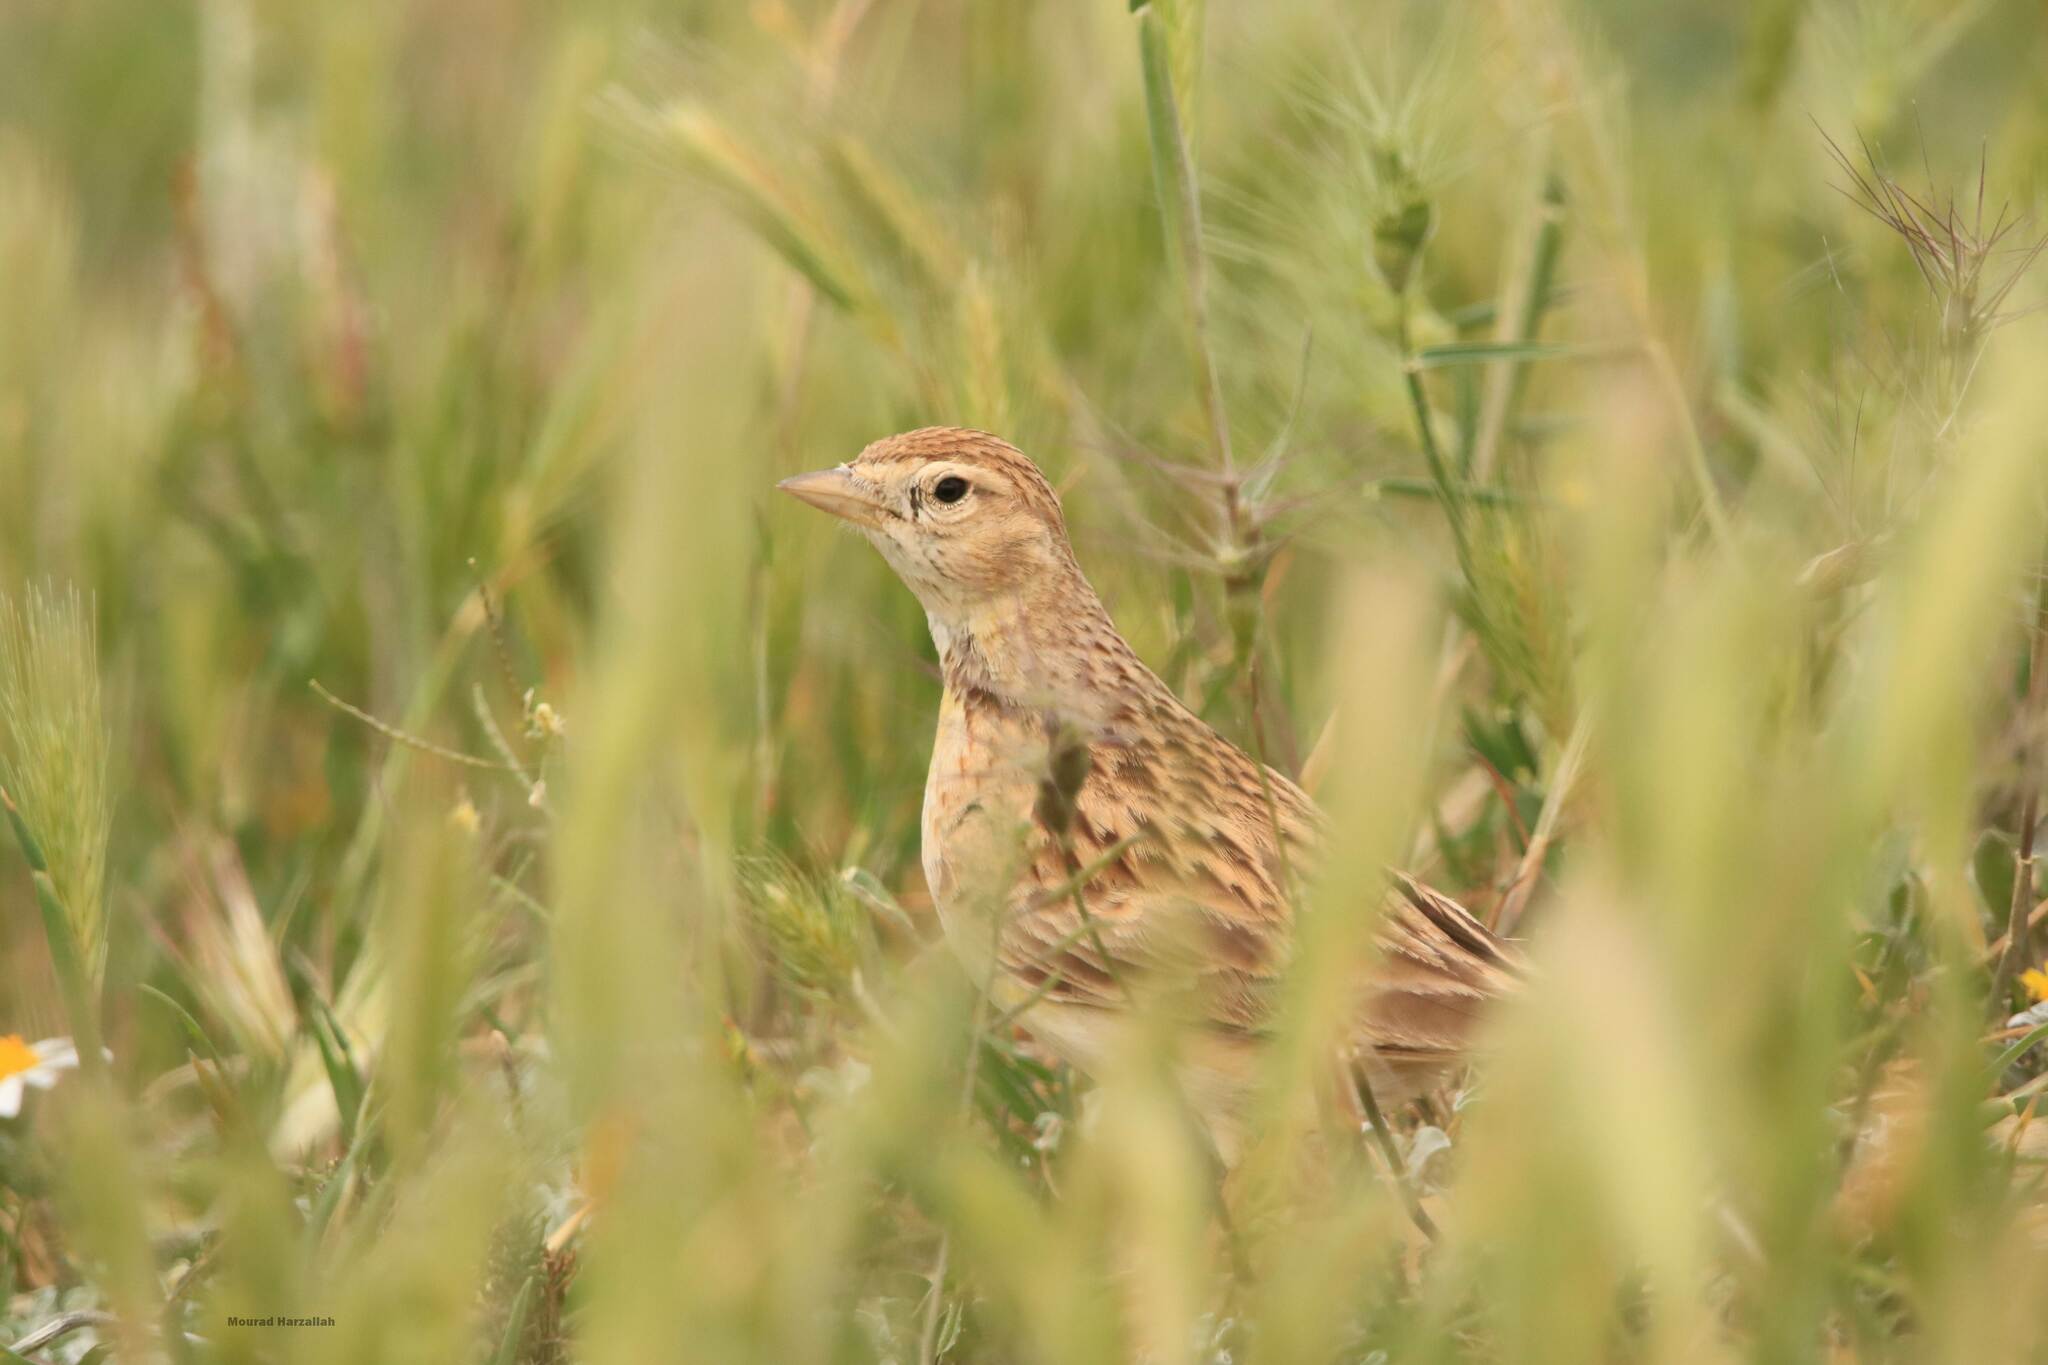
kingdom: Animalia
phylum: Chordata
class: Aves
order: Passeriformes
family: Alaudidae
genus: Calandrella
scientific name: Calandrella brachydactyla
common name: Greater short-toed lark
